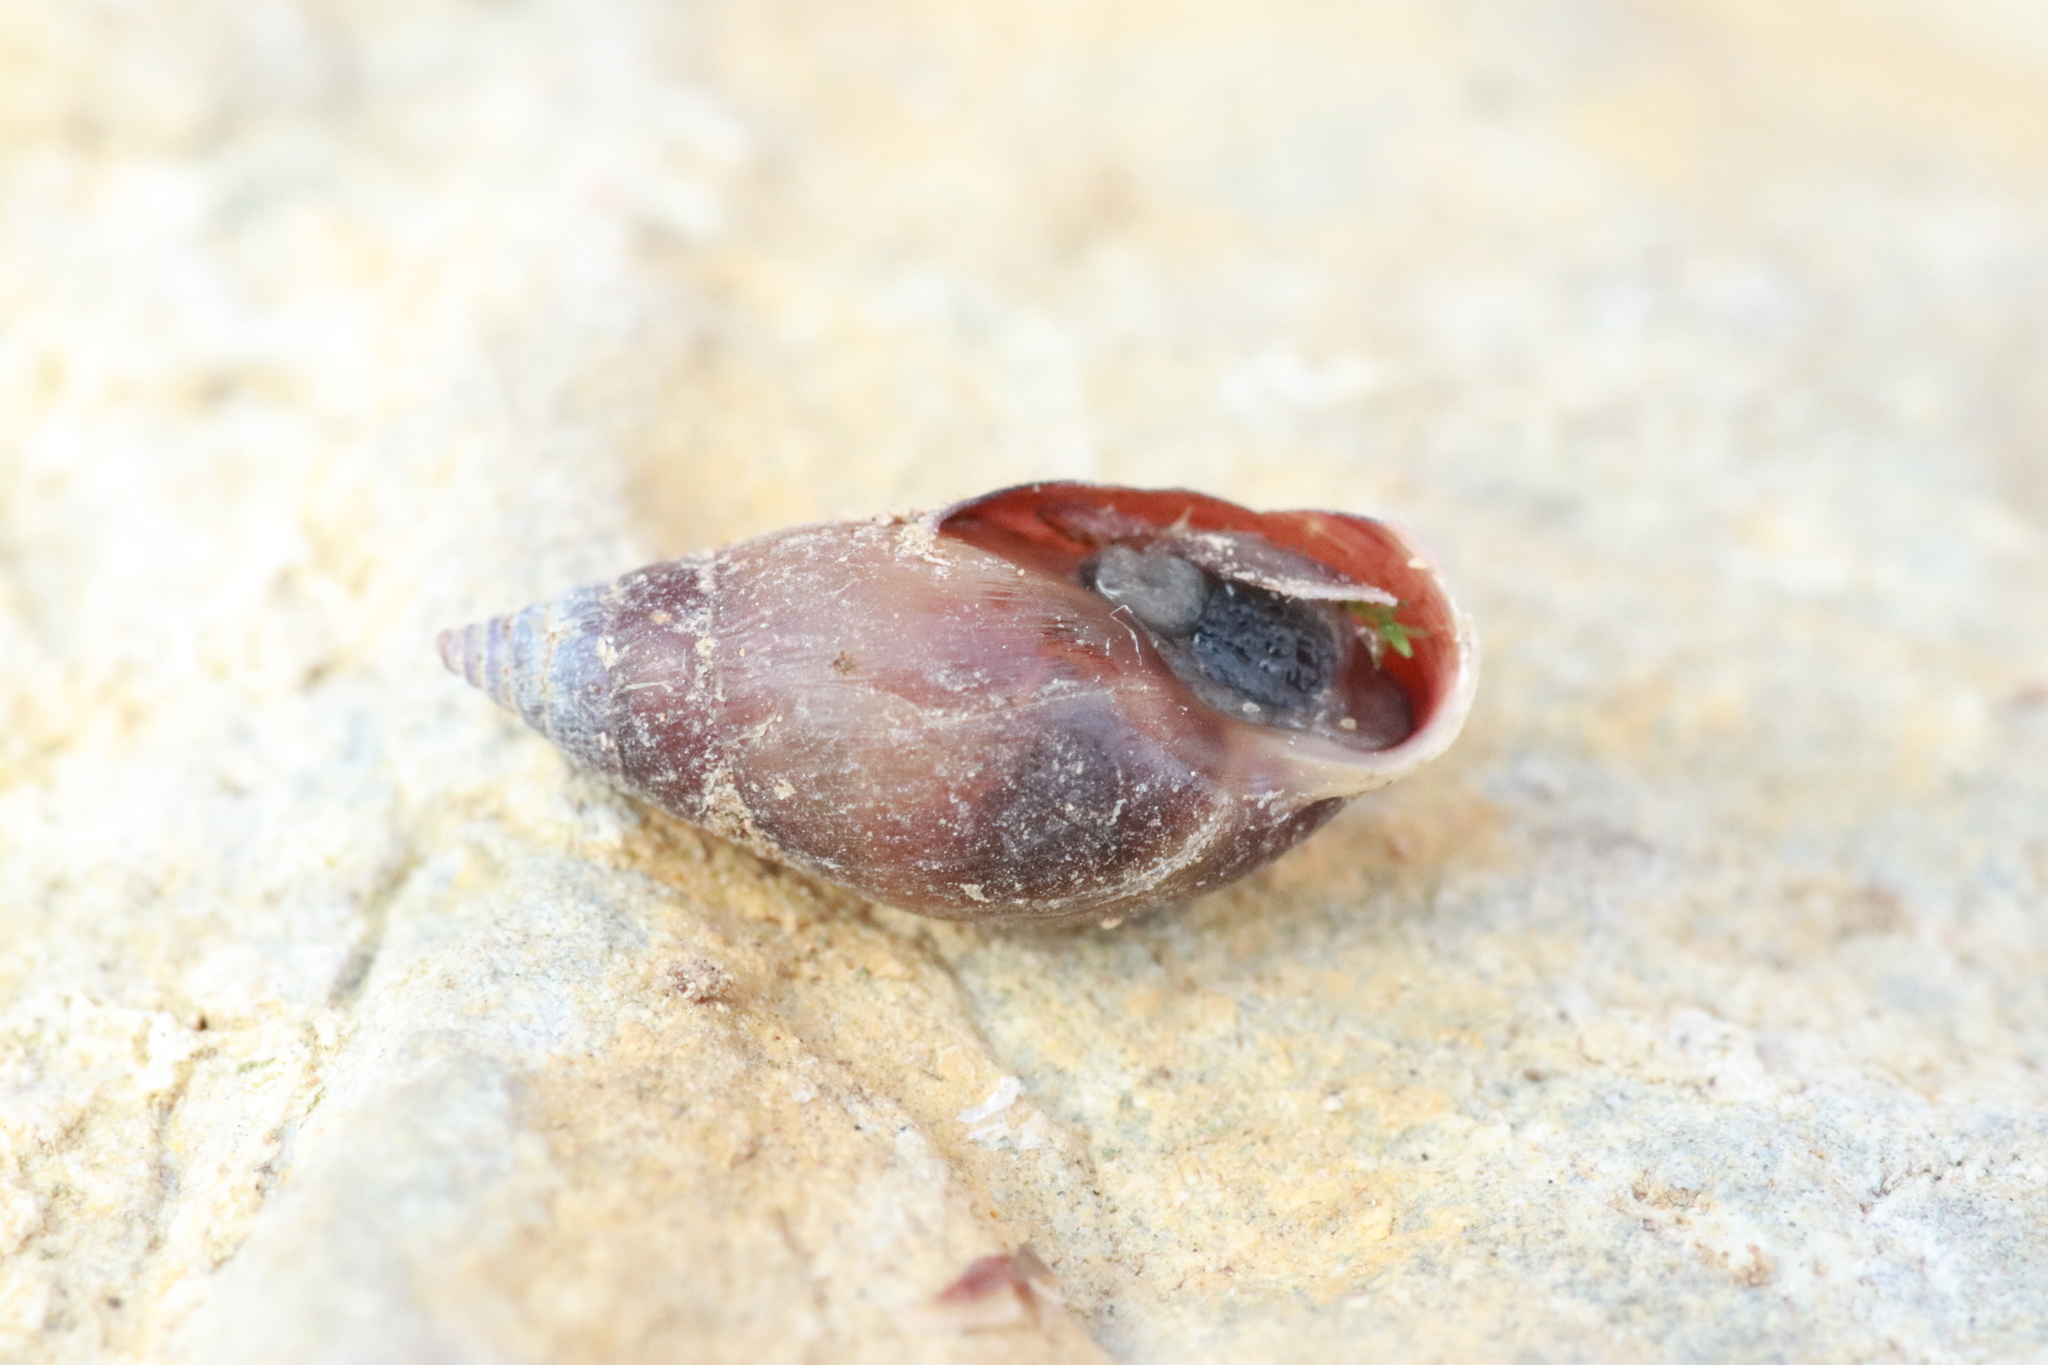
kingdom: Animalia
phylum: Mollusca
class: Gastropoda
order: Ellobiida
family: Ellobiidae
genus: Myosotella
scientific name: Myosotella myosotis
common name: Mouse-eared snail
